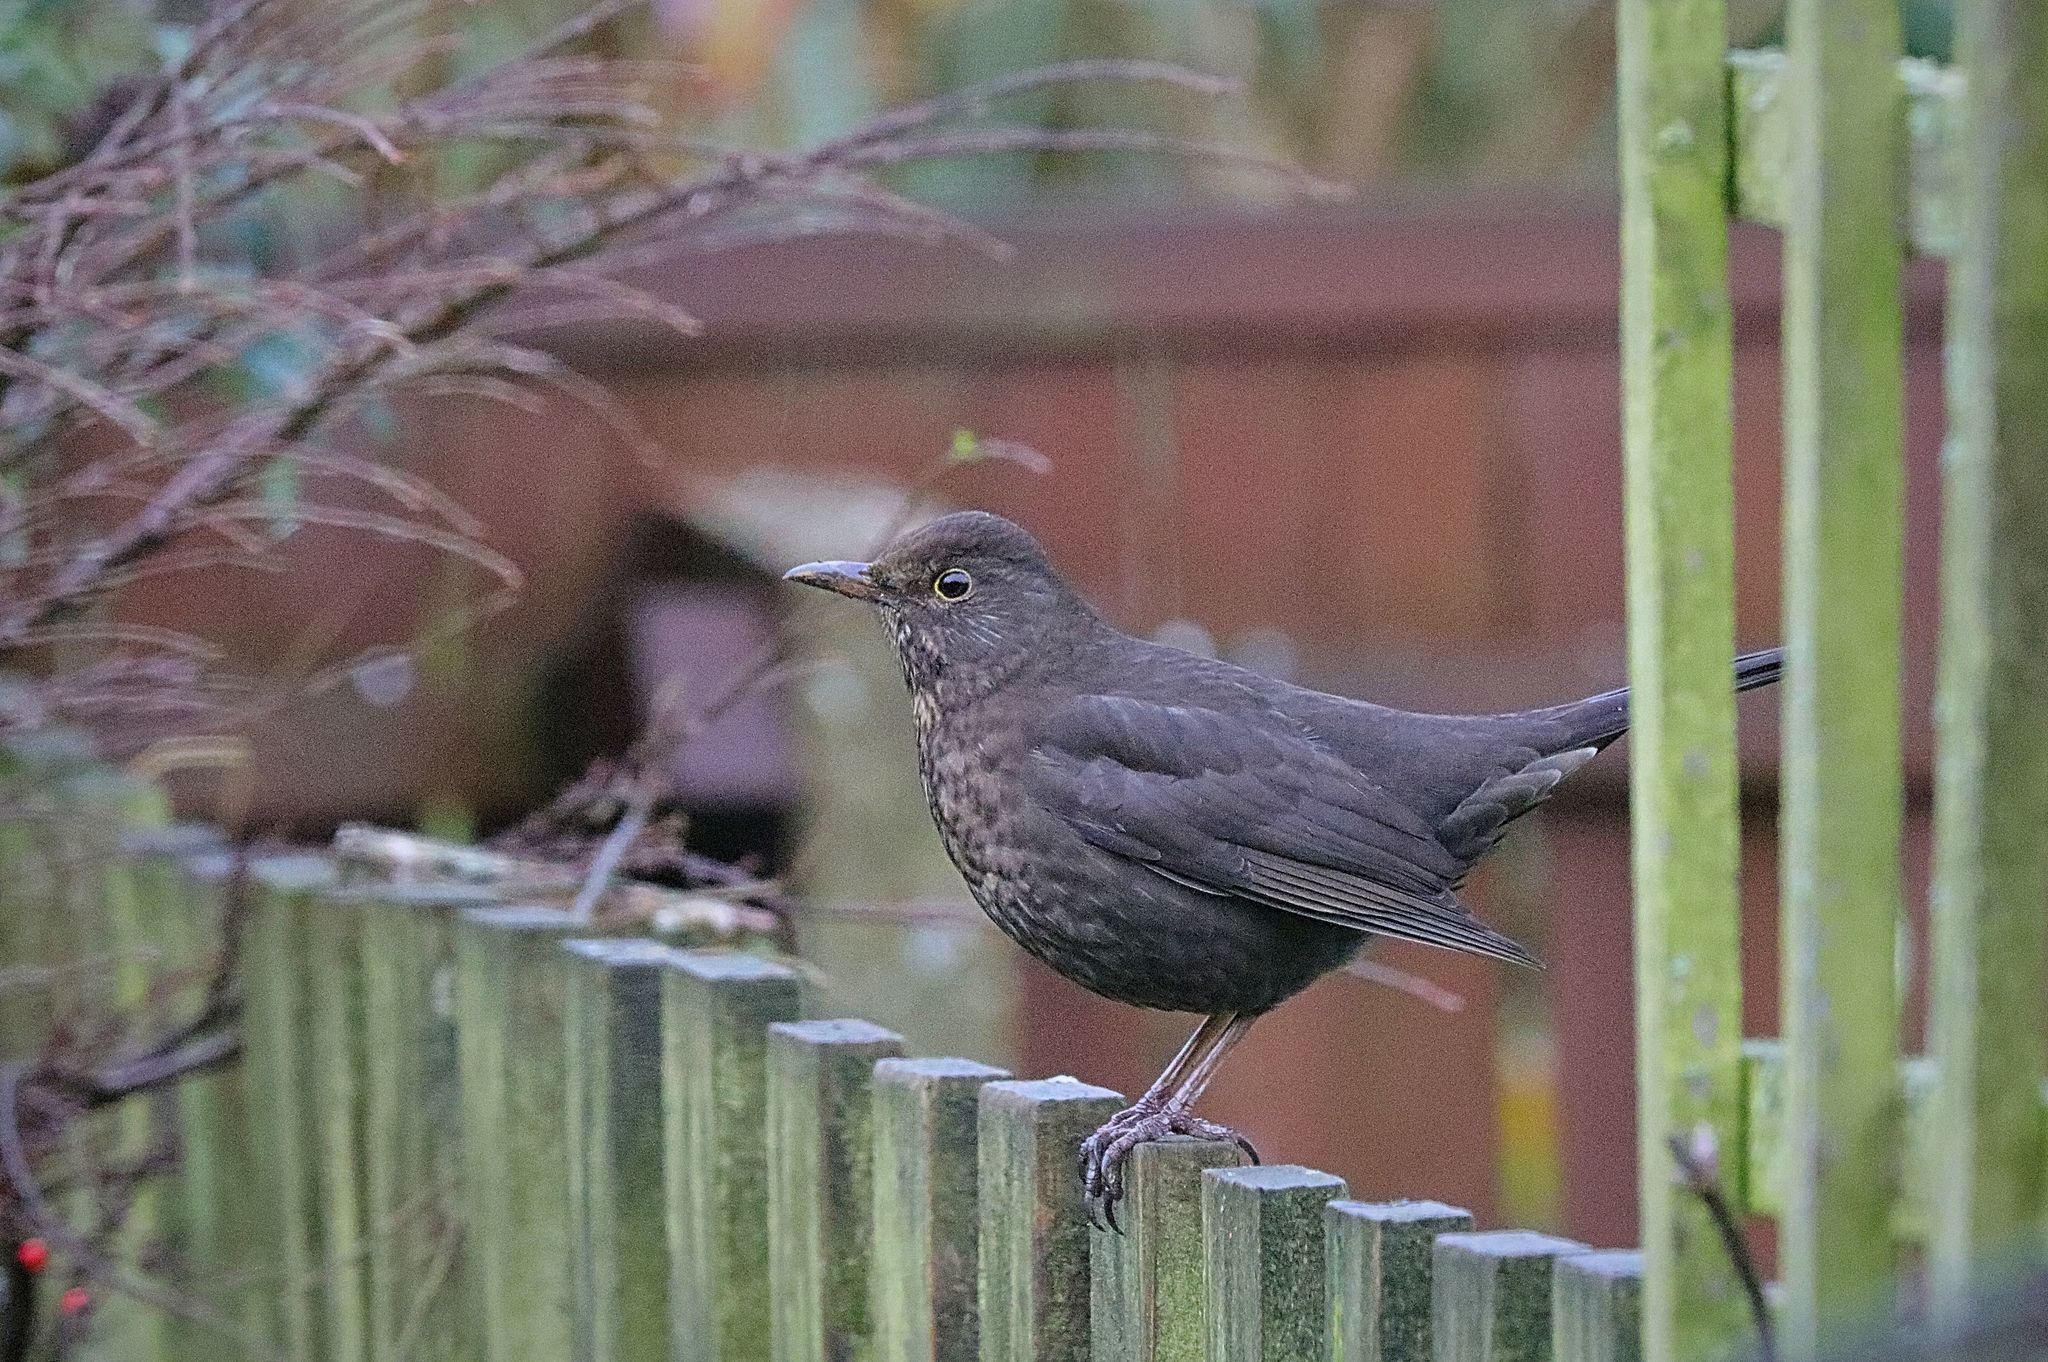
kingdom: Animalia
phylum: Chordata
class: Aves
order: Passeriformes
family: Turdidae
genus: Turdus
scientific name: Turdus merula
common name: Common blackbird
